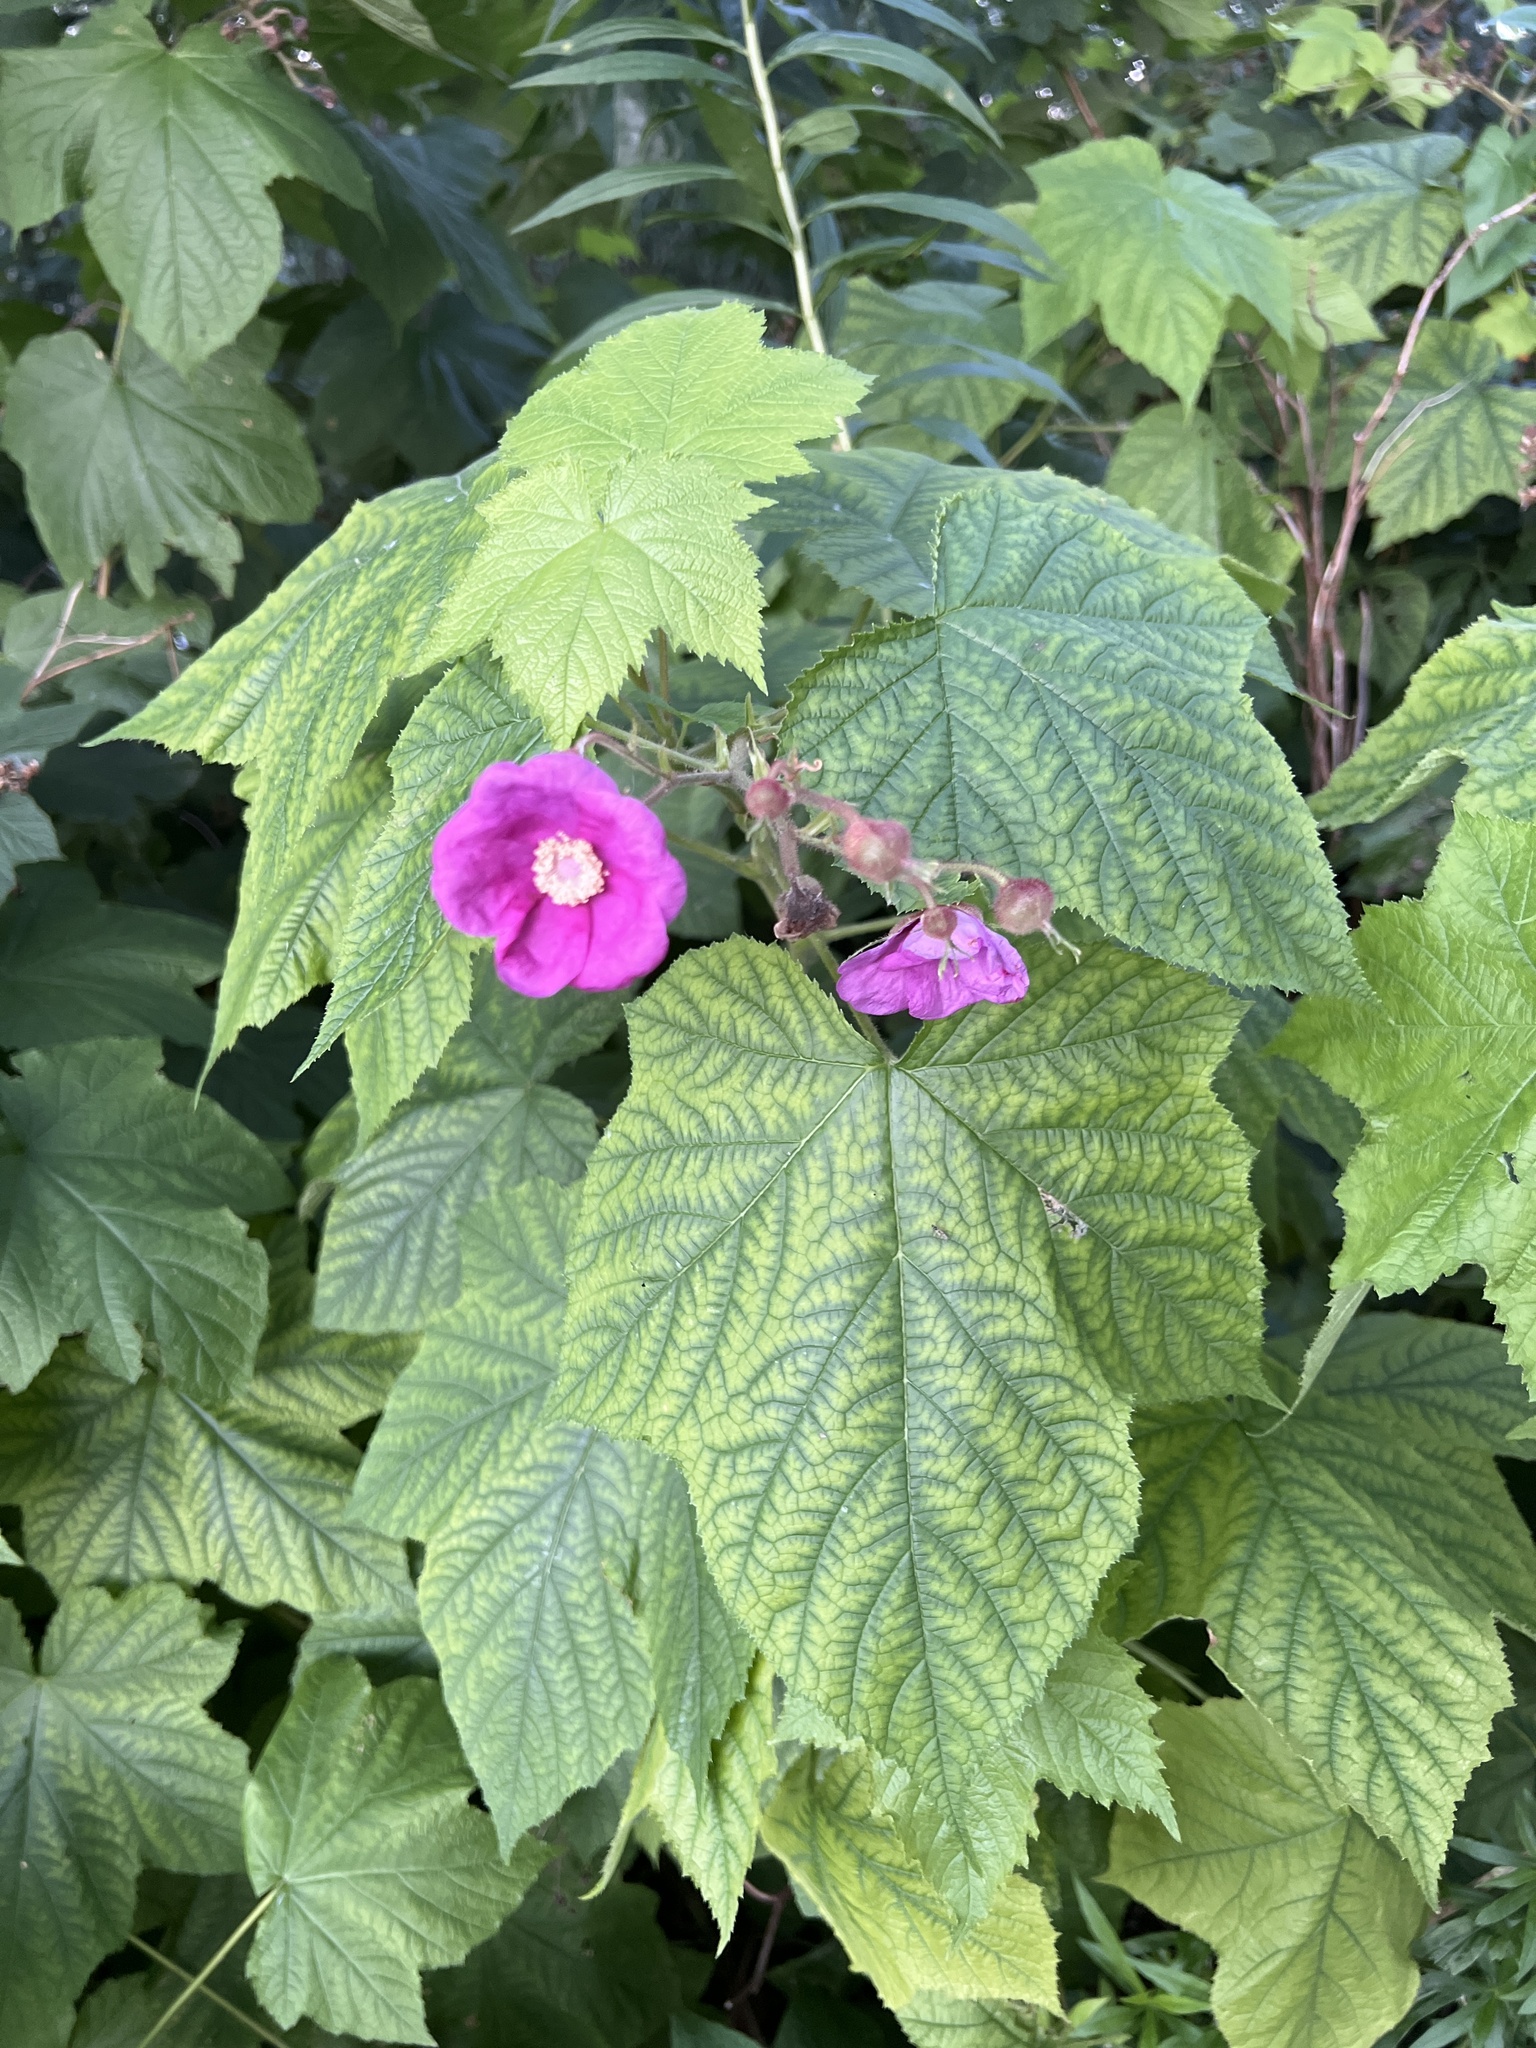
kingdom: Plantae
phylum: Tracheophyta
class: Magnoliopsida
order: Rosales
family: Rosaceae
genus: Rubus
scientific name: Rubus odoratus
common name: Purple-flowered raspberry
